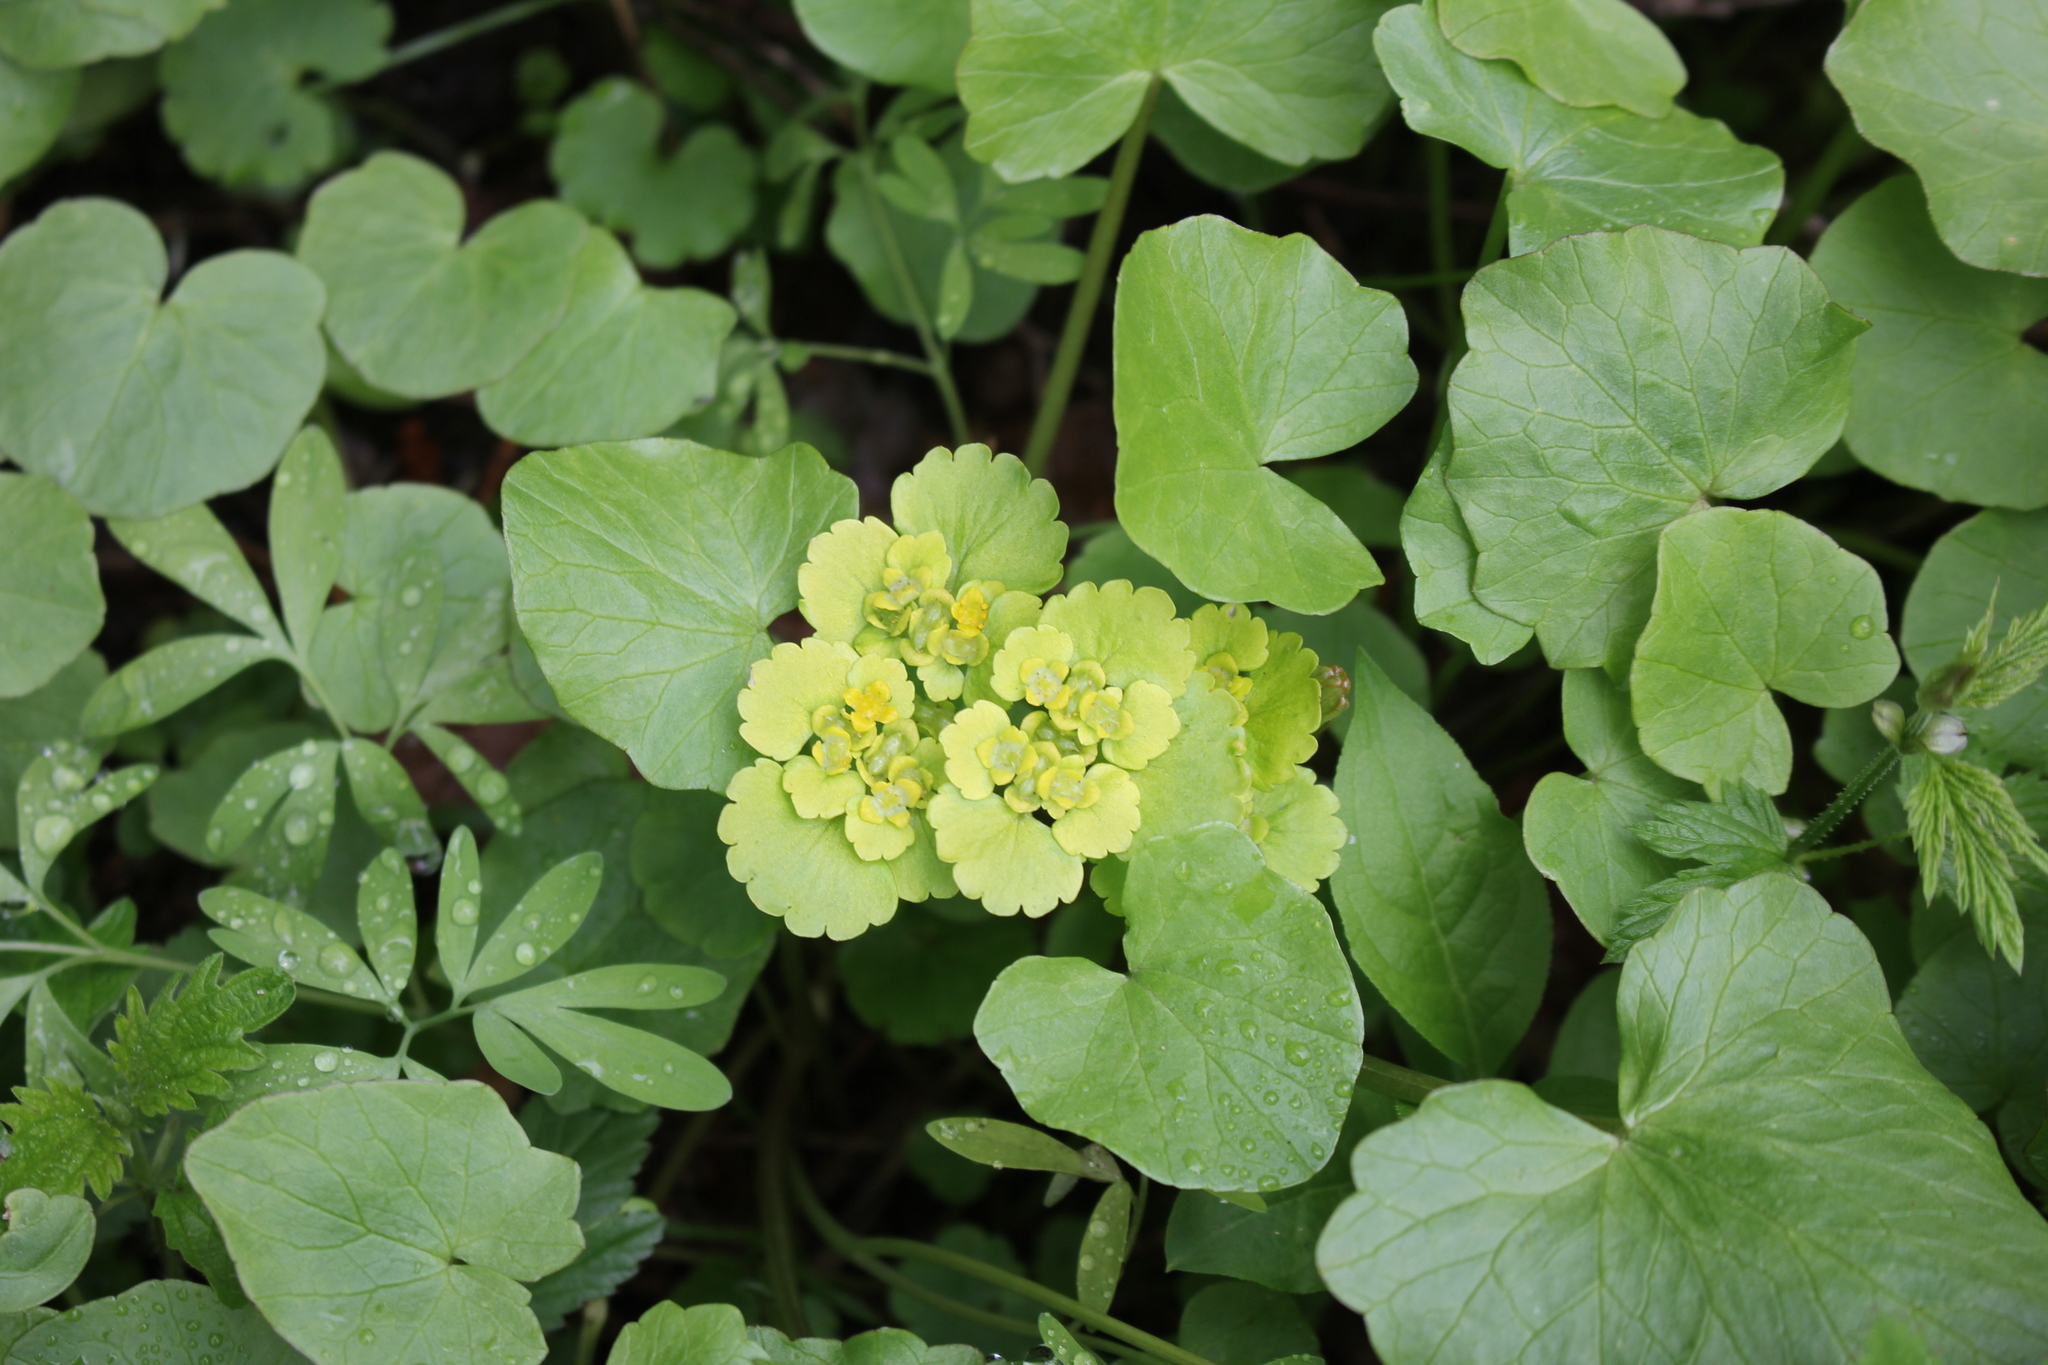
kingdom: Plantae
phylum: Tracheophyta
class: Magnoliopsida
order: Saxifragales
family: Saxifragaceae
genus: Chrysosplenium
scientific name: Chrysosplenium alternifolium
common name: Alternate-leaved golden-saxifrage
